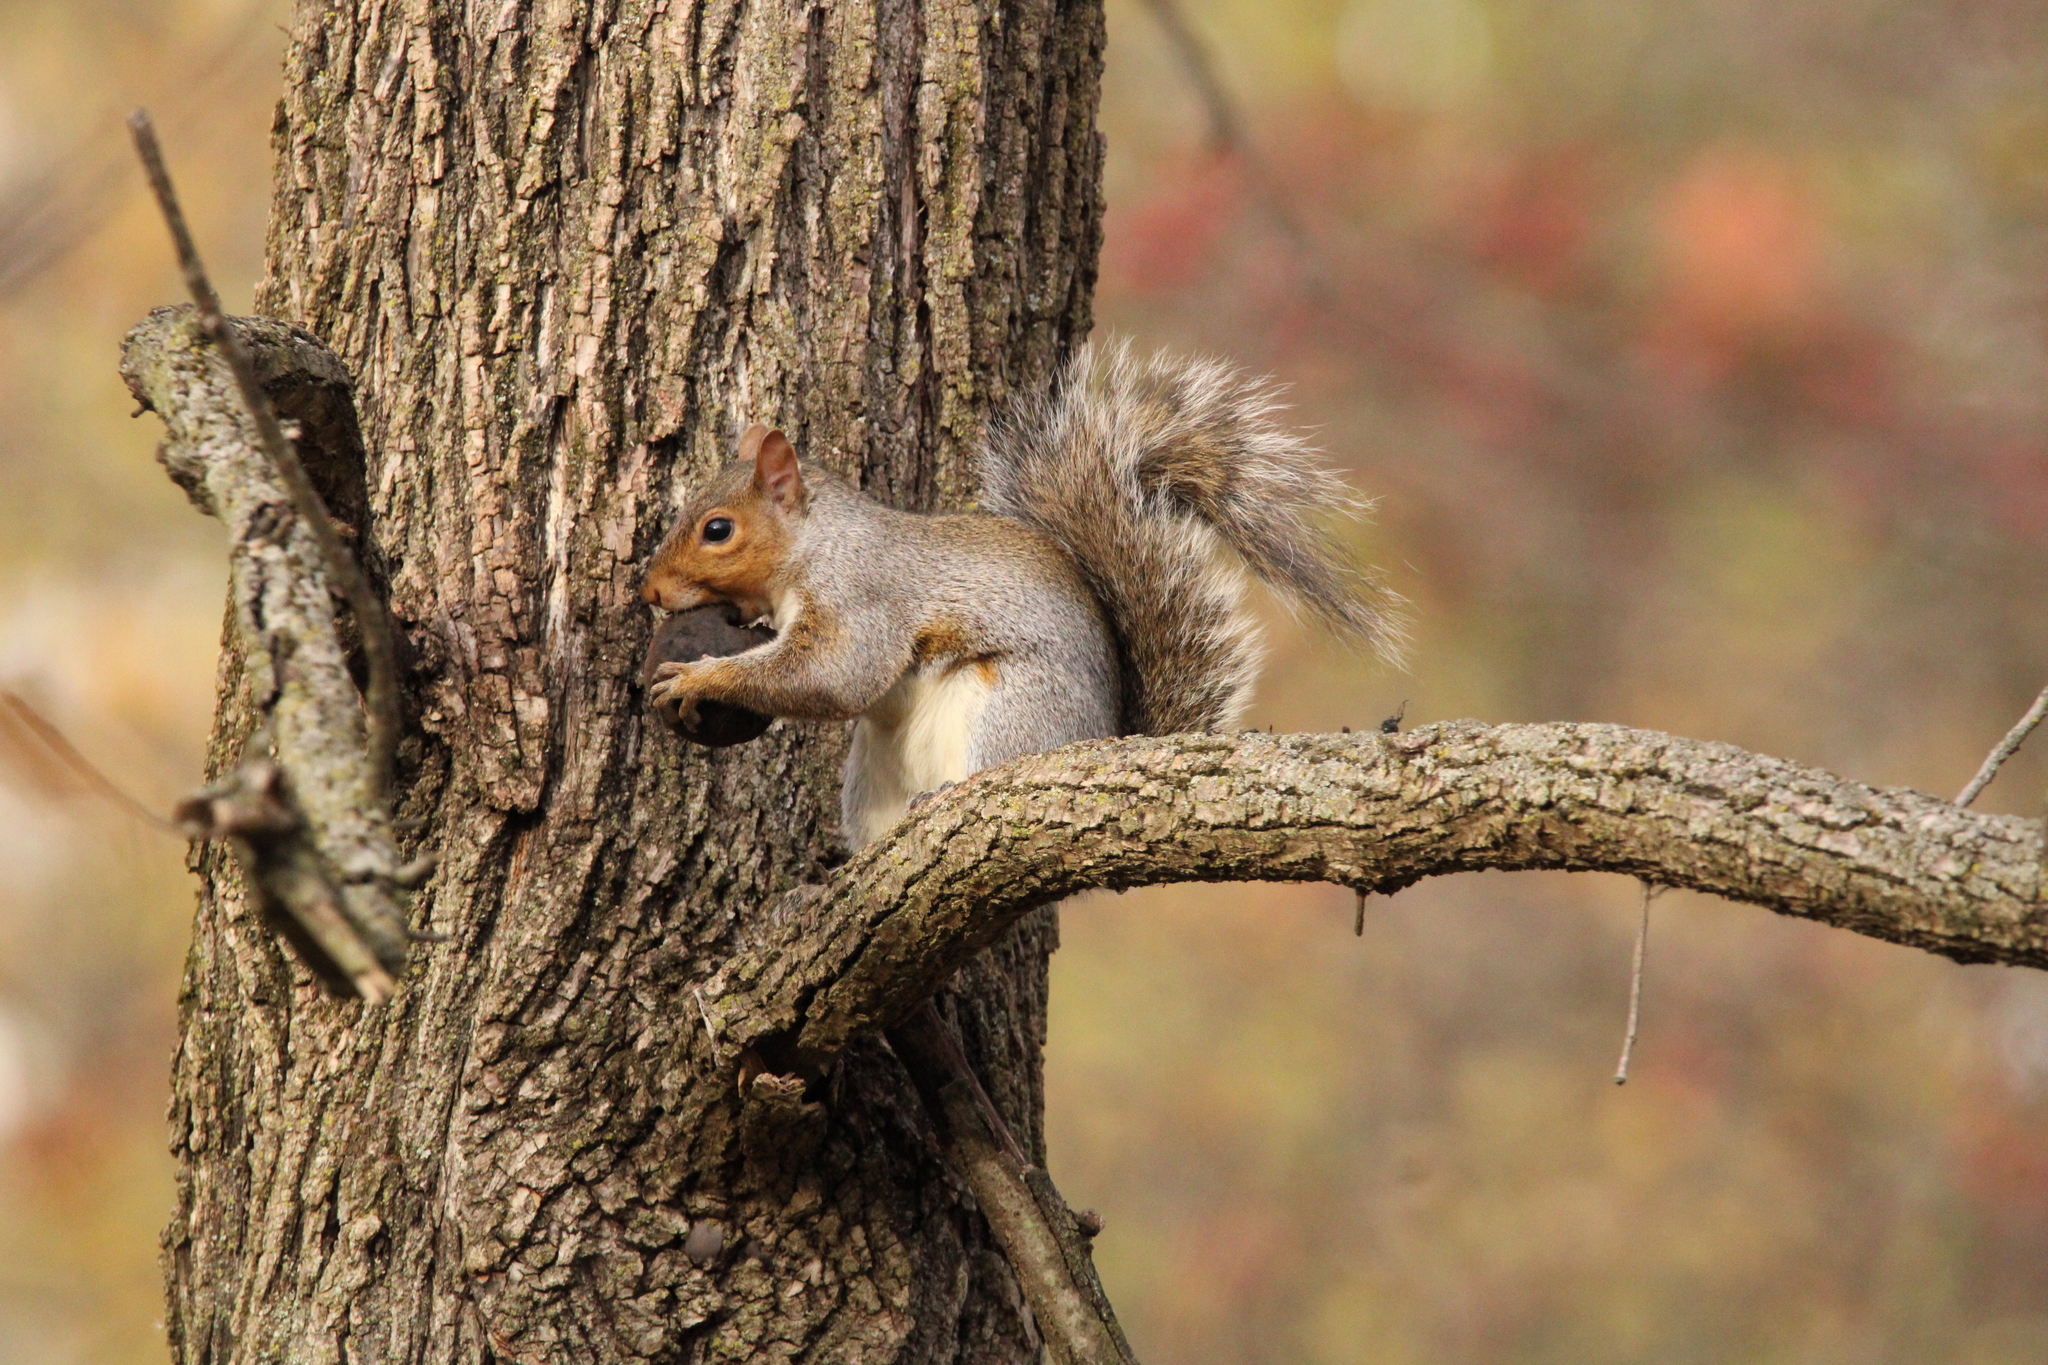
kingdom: Animalia
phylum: Chordata
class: Mammalia
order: Rodentia
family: Sciuridae
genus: Sciurus
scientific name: Sciurus carolinensis
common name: Eastern gray squirrel
